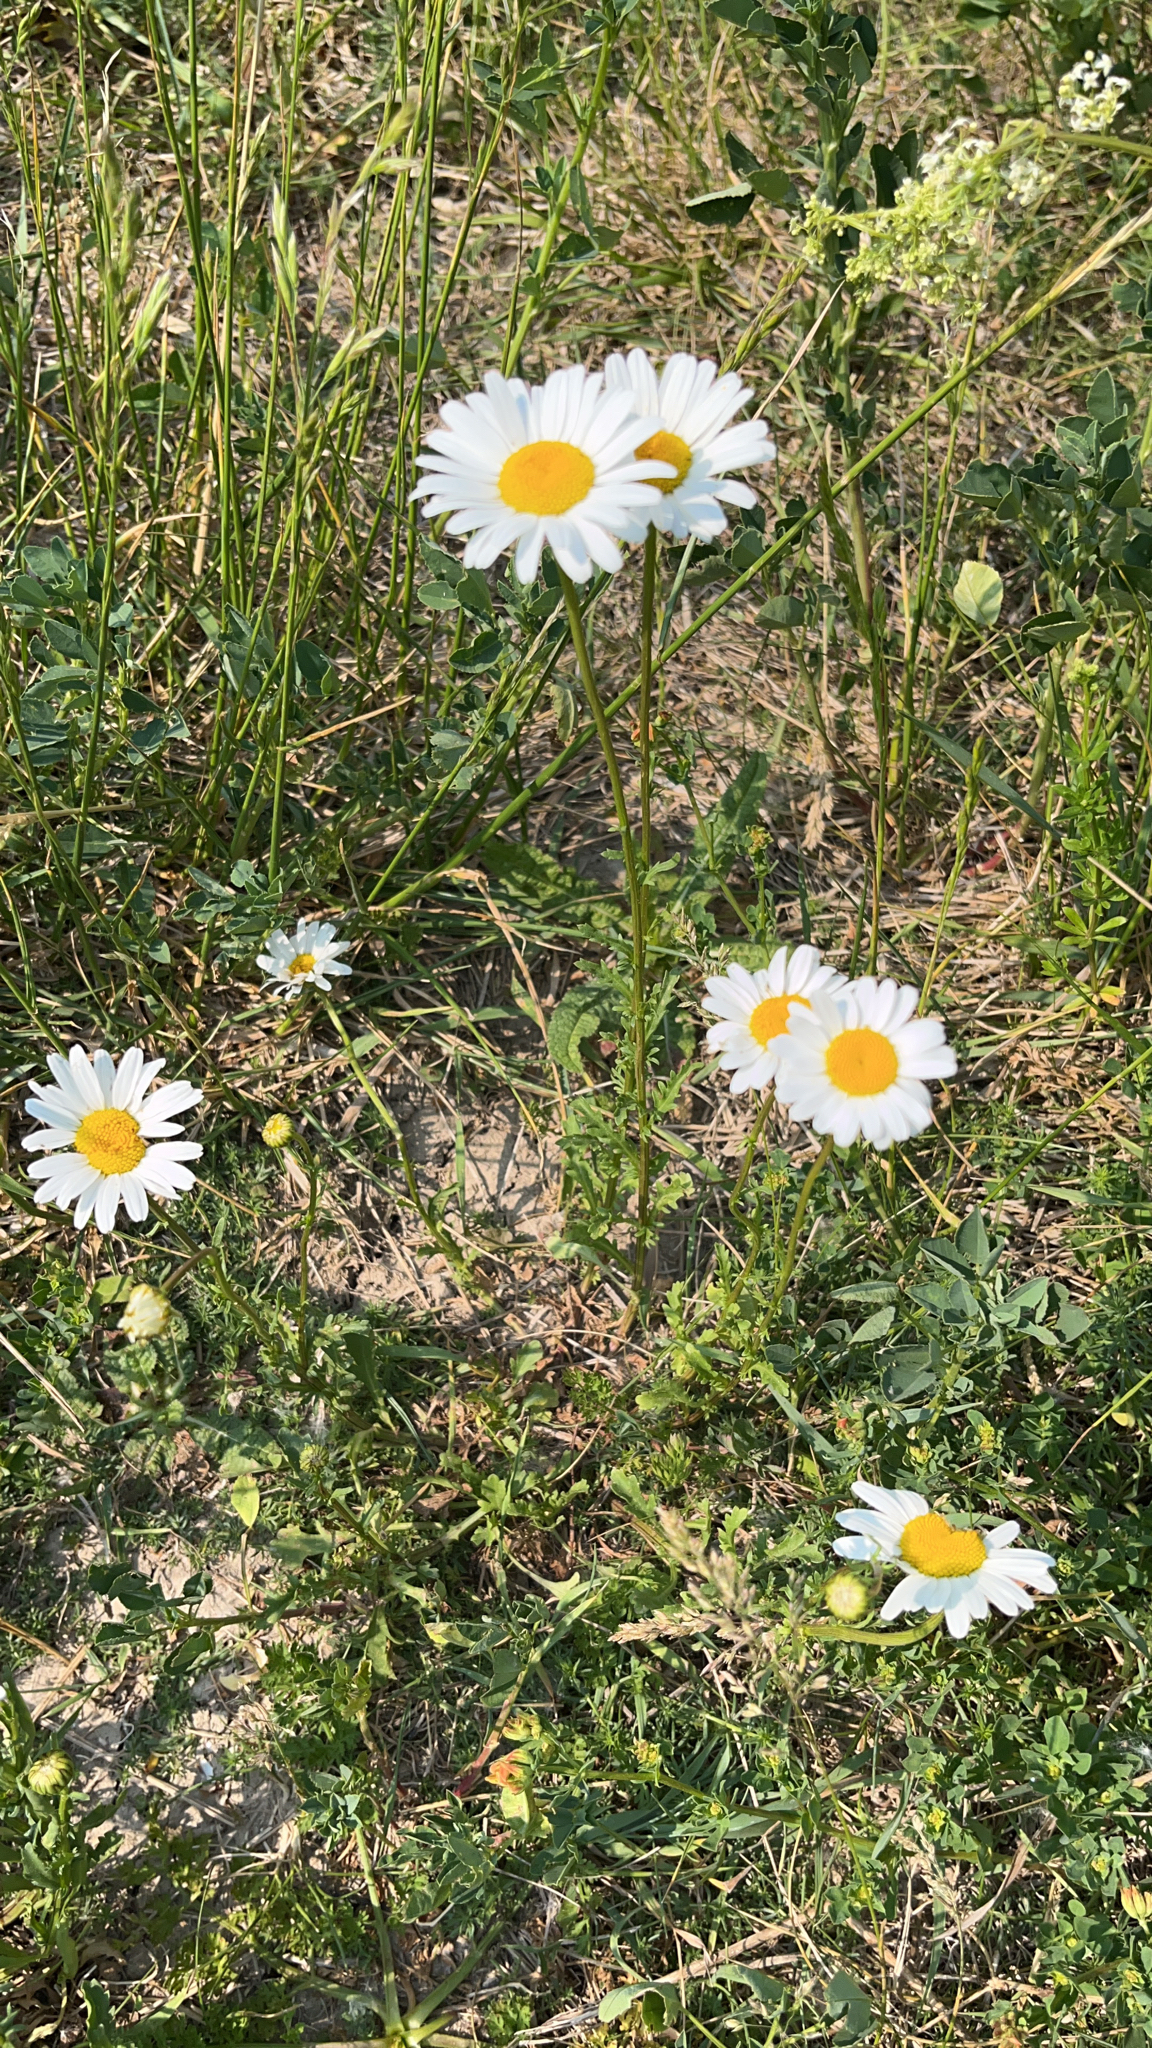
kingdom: Plantae
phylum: Tracheophyta
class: Magnoliopsida
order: Asterales
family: Asteraceae
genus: Leucanthemum
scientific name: Leucanthemum vulgare
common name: Oxeye daisy
